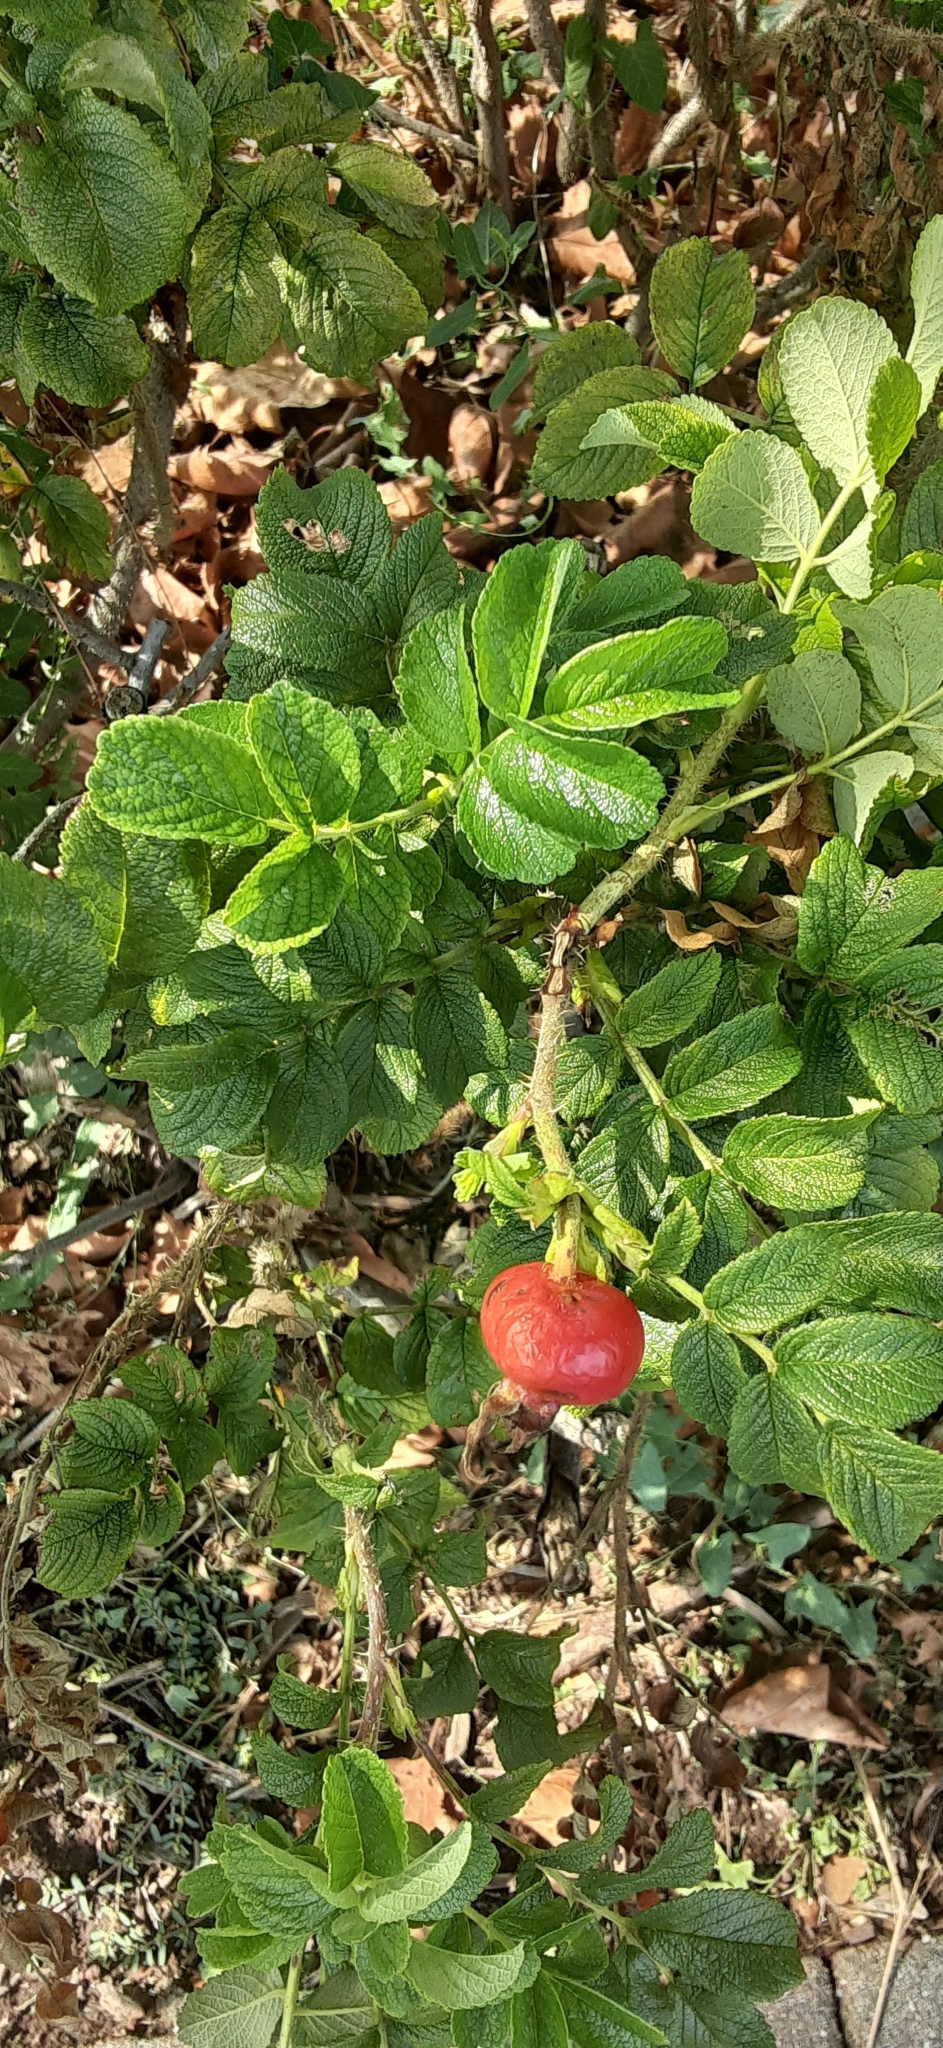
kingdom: Plantae
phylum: Tracheophyta
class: Magnoliopsida
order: Rosales
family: Rosaceae
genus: Rosa
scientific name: Rosa rugosa
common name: Japanese rose
